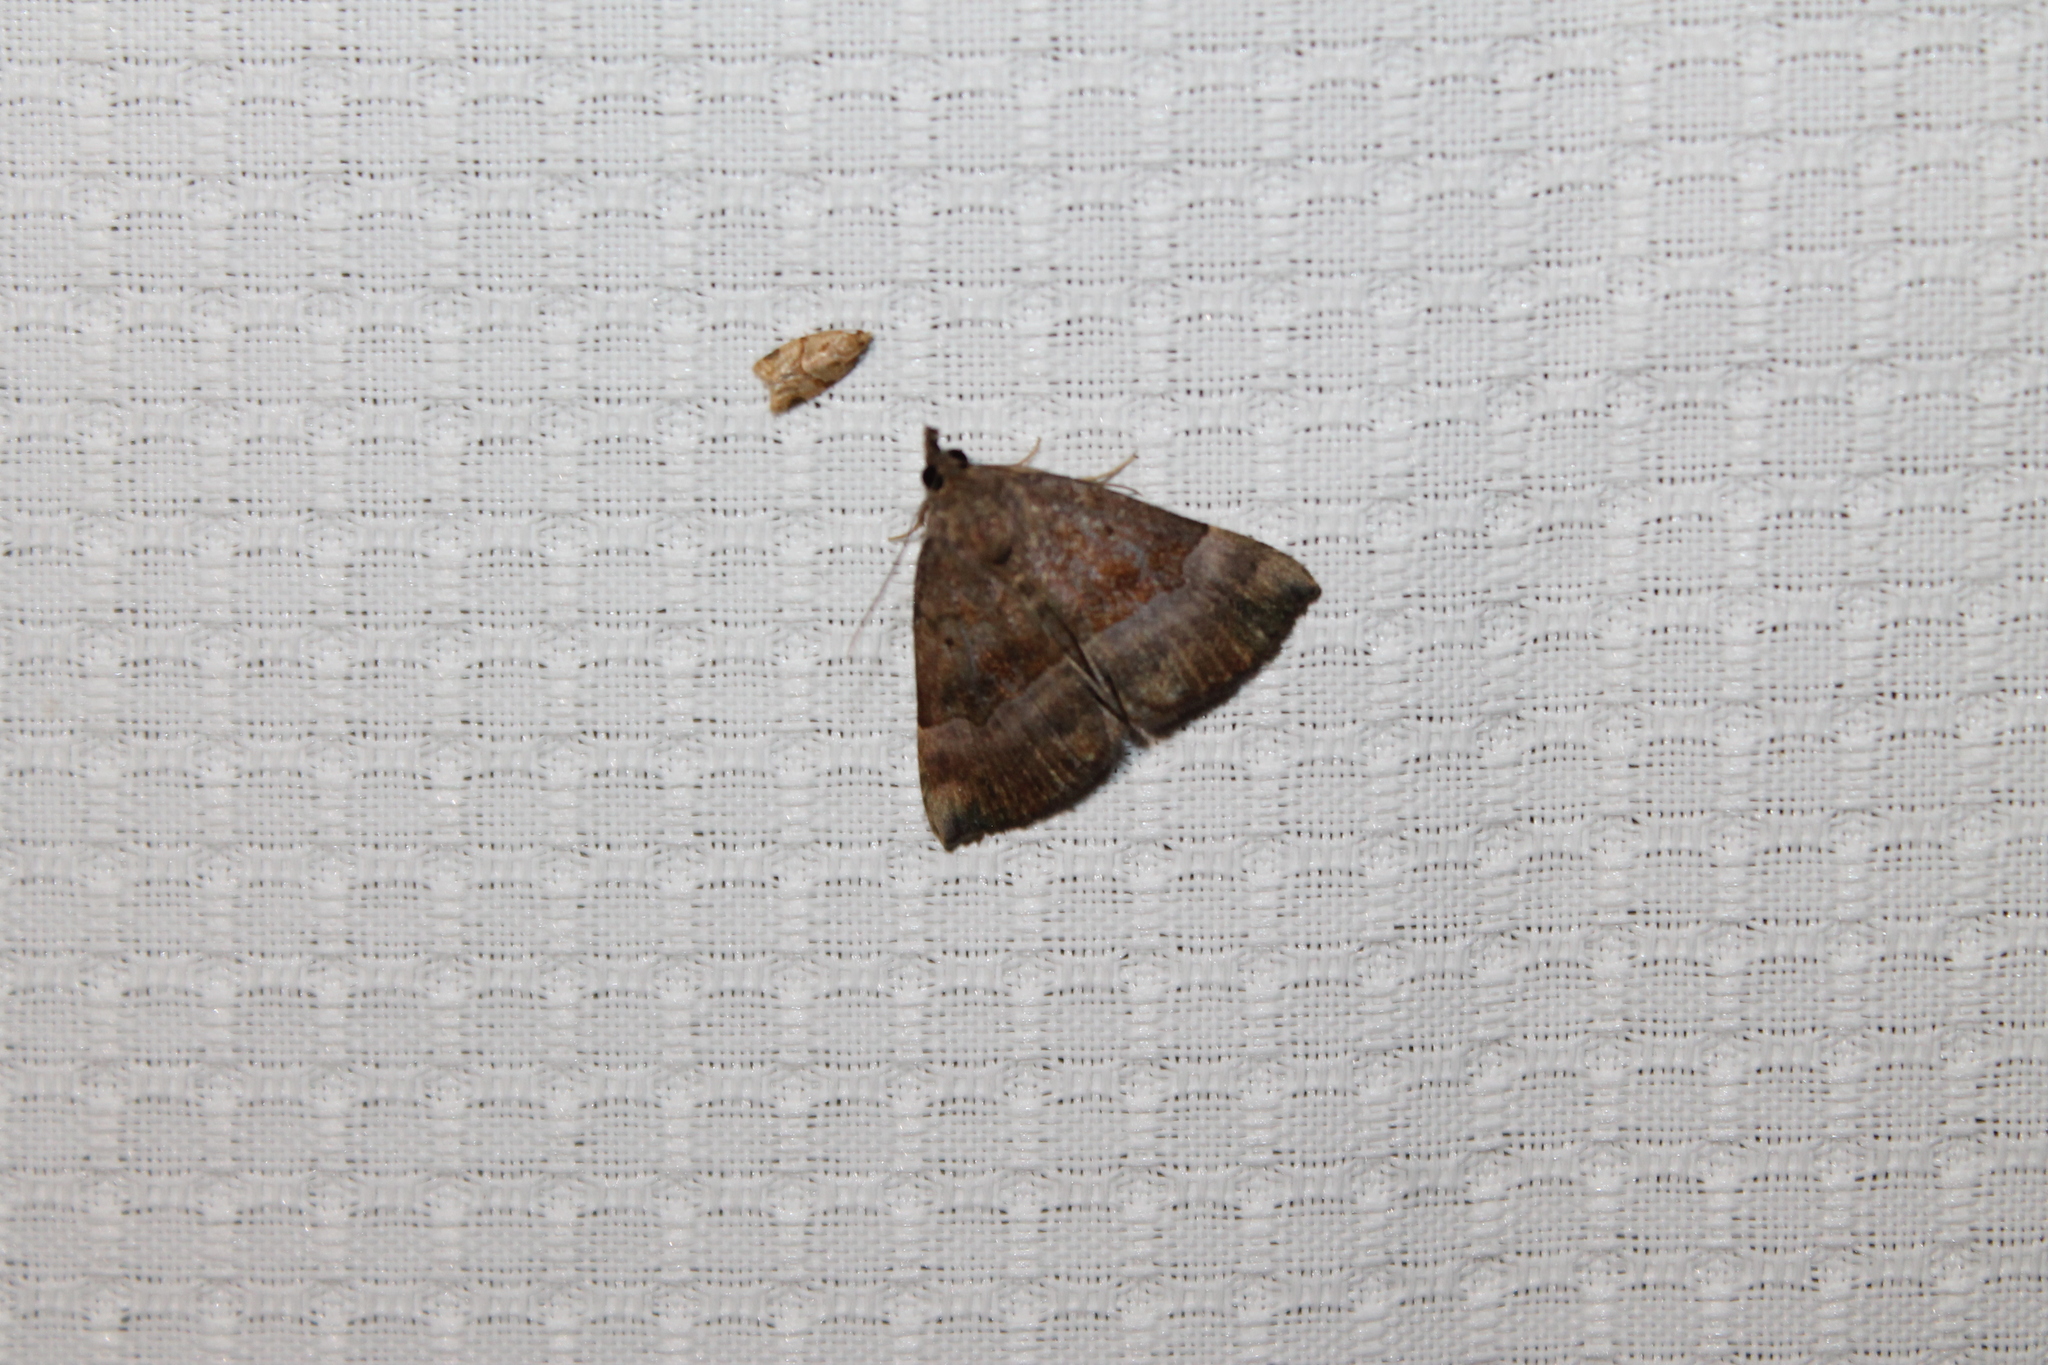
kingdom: Animalia
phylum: Arthropoda
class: Insecta
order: Lepidoptera
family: Erebidae
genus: Hypena
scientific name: Hypena madefactalis
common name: Gray-edged snout
